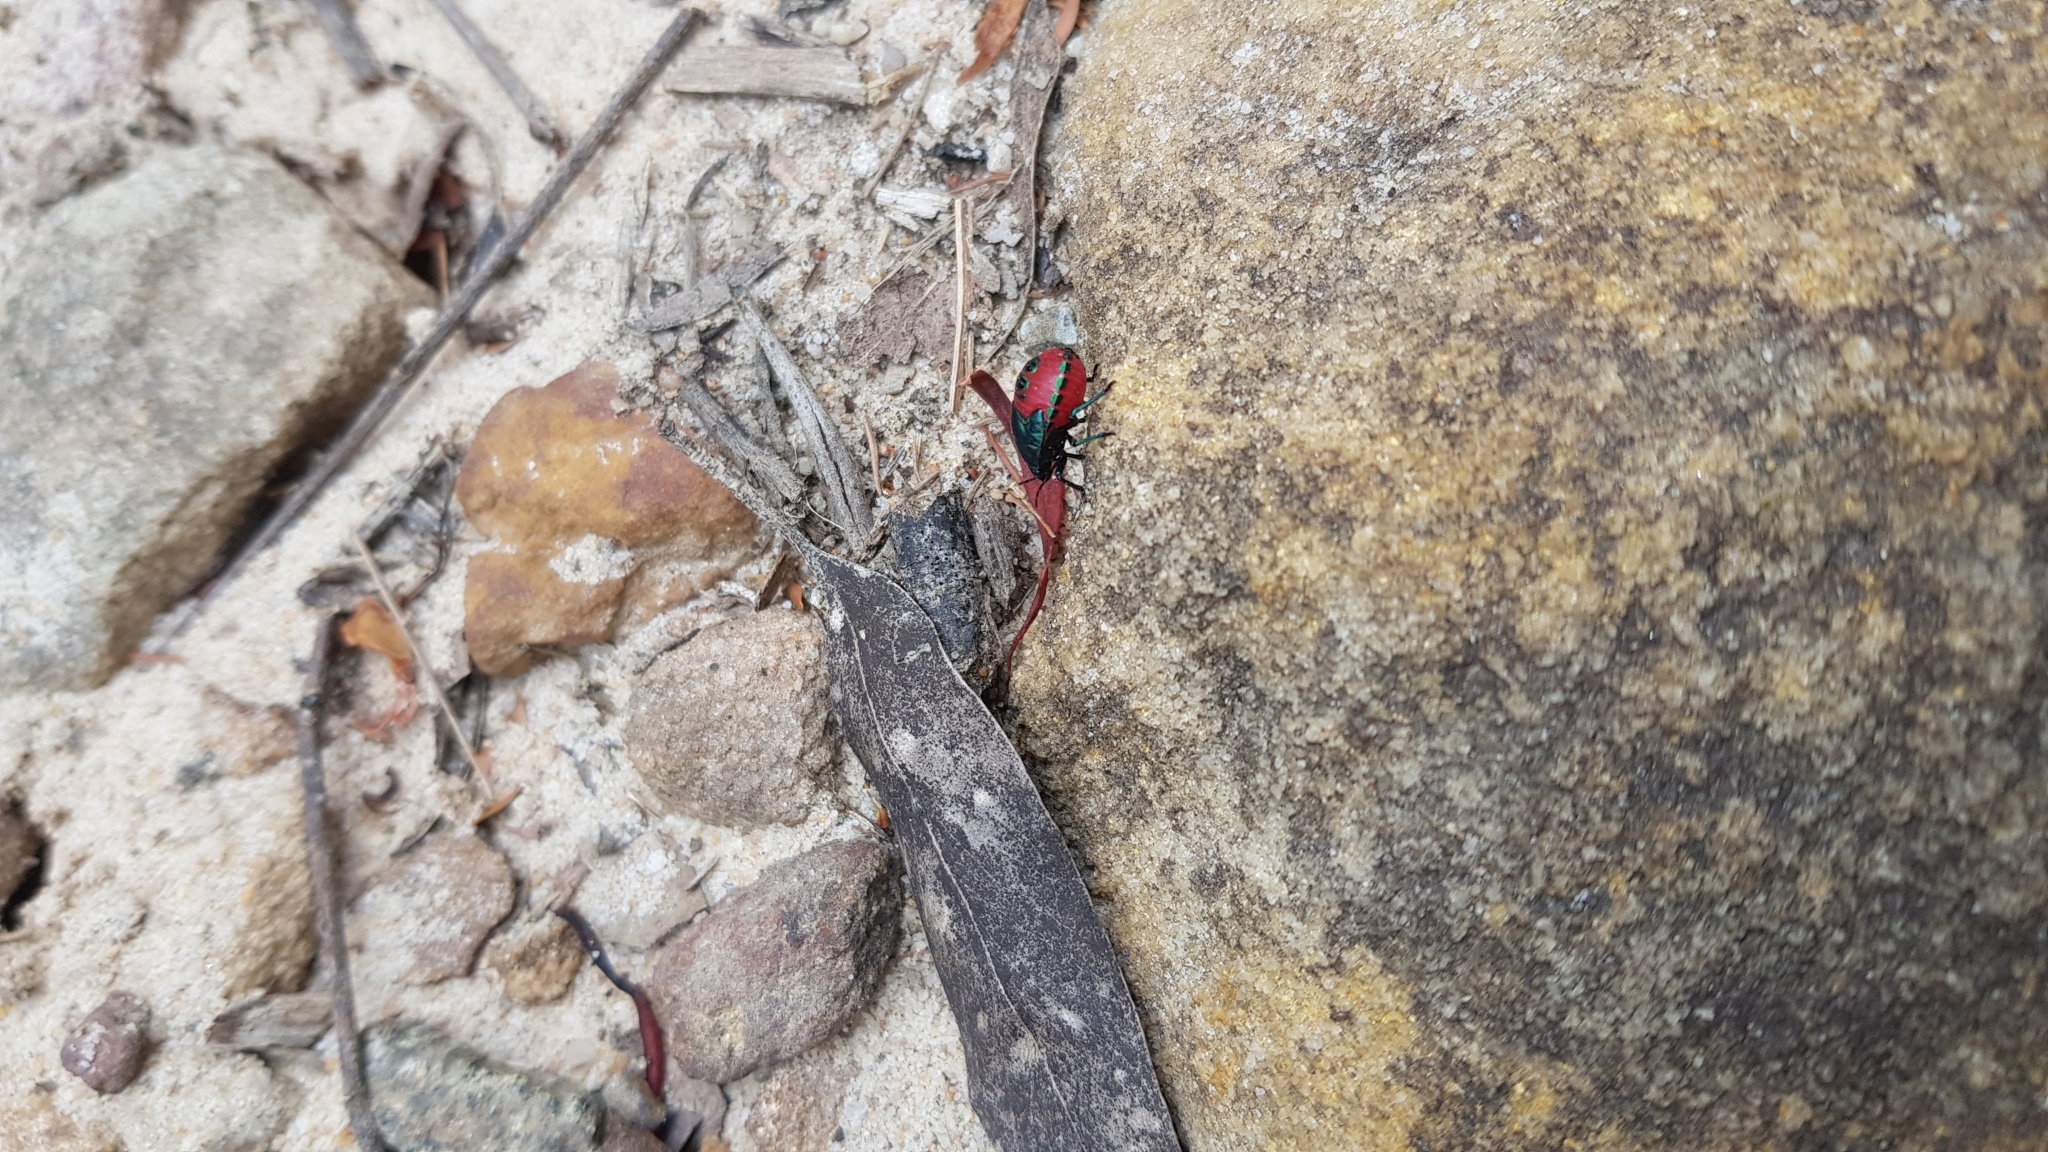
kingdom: Animalia
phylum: Arthropoda
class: Insecta
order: Hemiptera
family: Scutelleridae
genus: Choerocoris
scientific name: Choerocoris paganus
